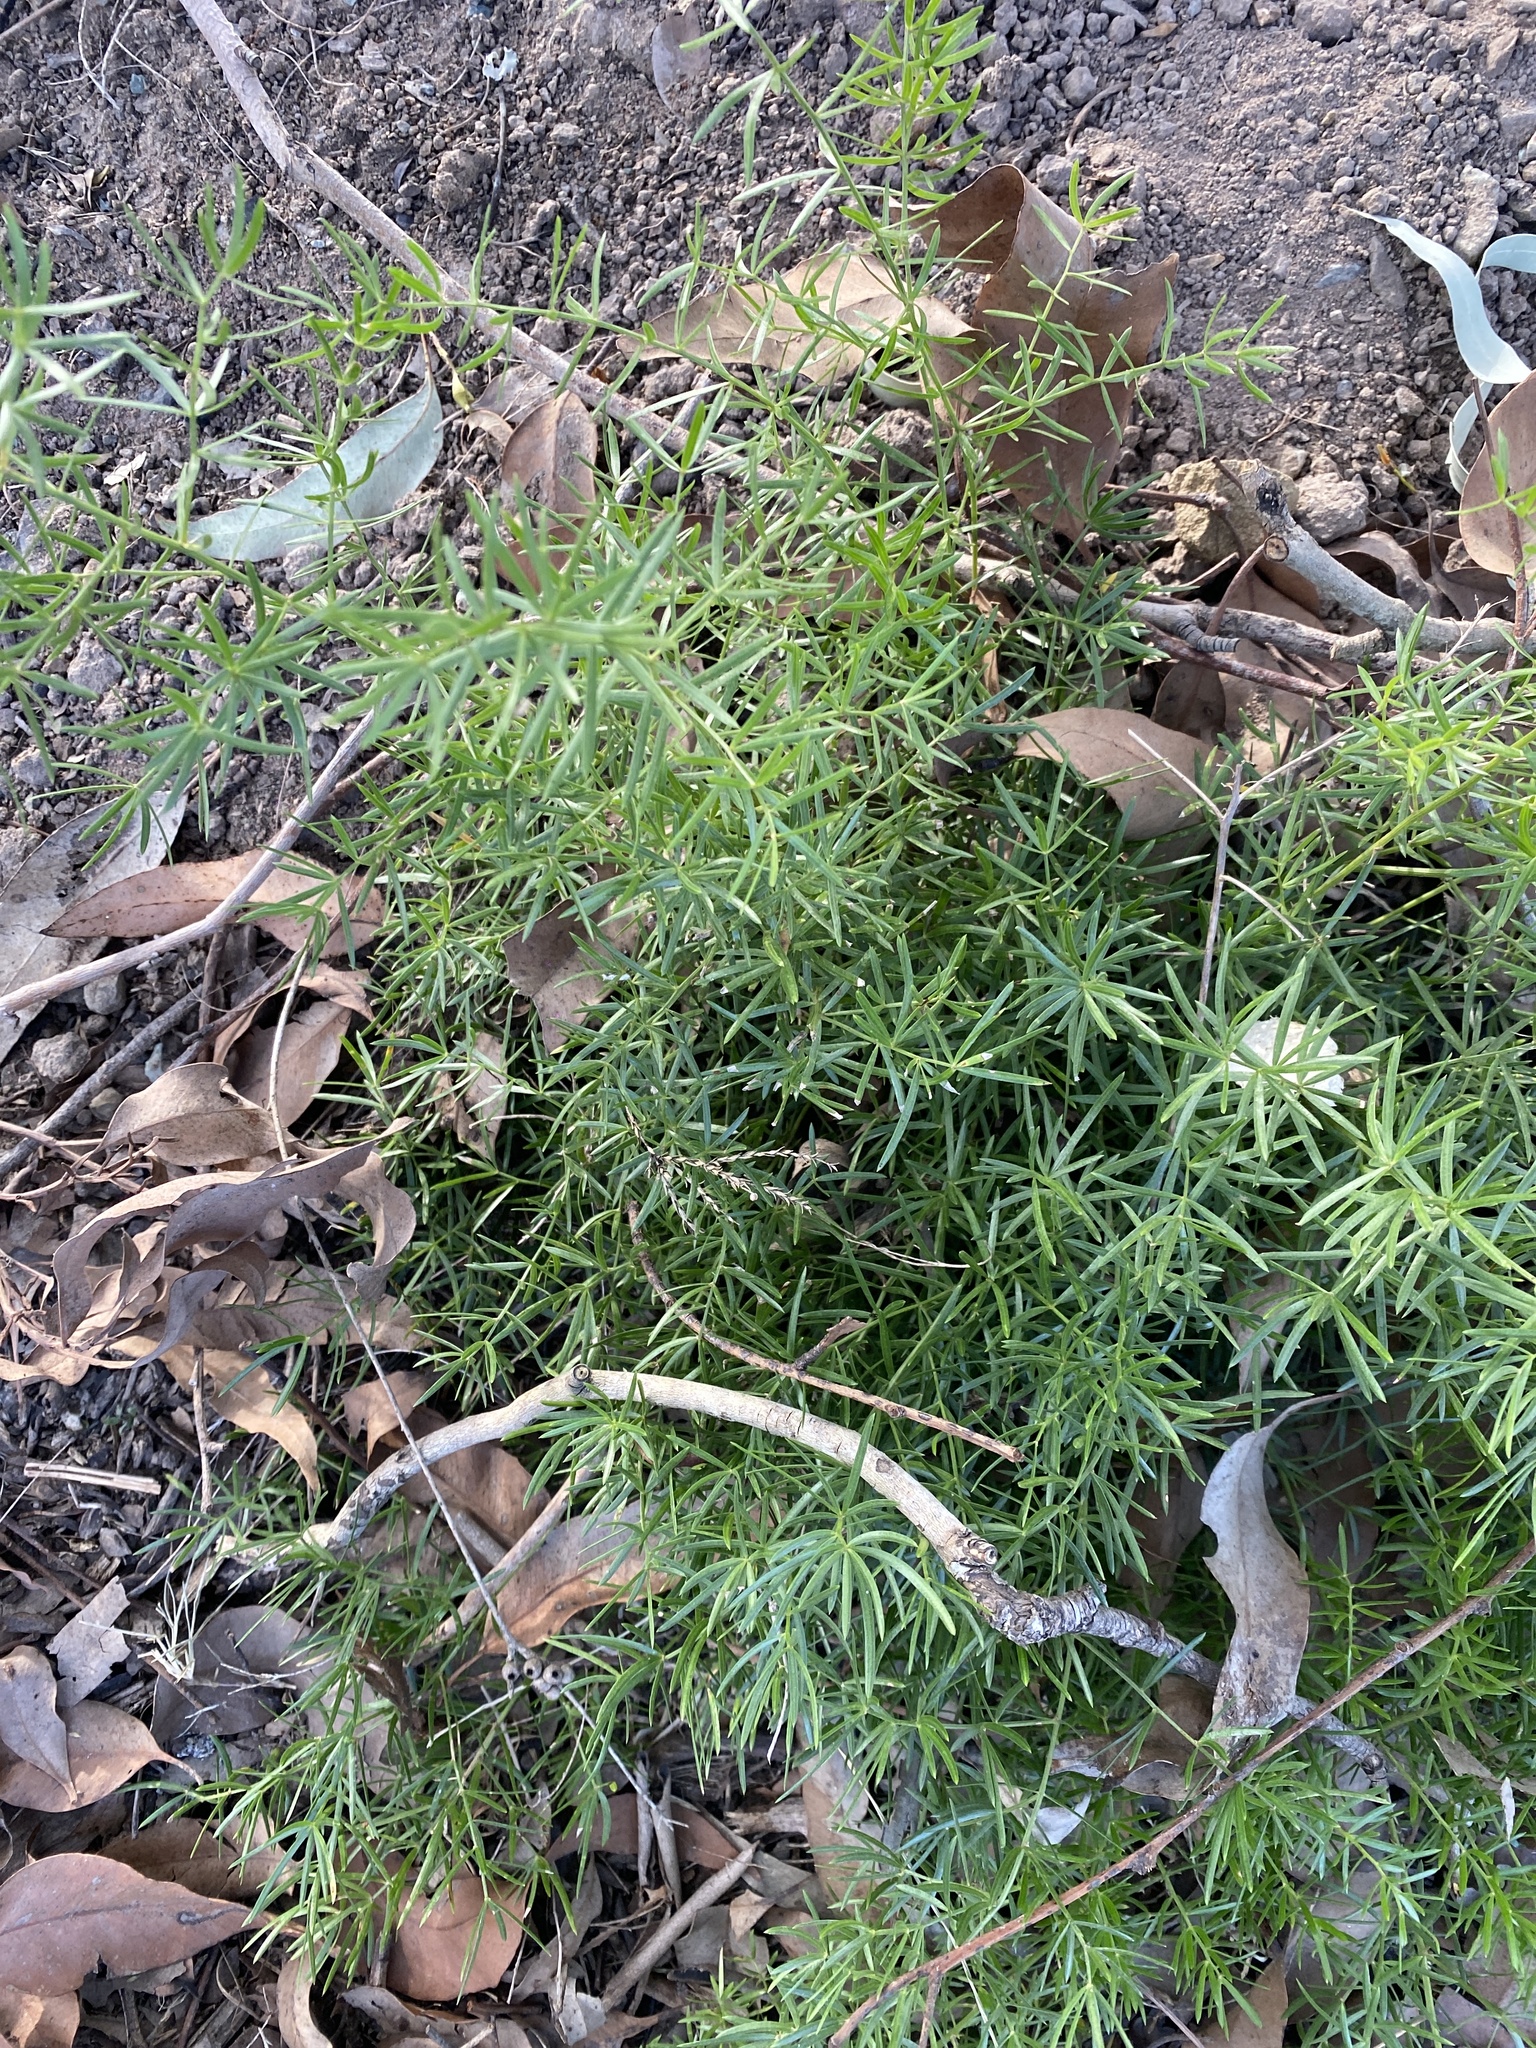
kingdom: Plantae
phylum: Tracheophyta
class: Liliopsida
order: Asparagales
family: Asparagaceae
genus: Asparagus
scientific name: Asparagus aethiopicus
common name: Sprenger's asparagus fern
